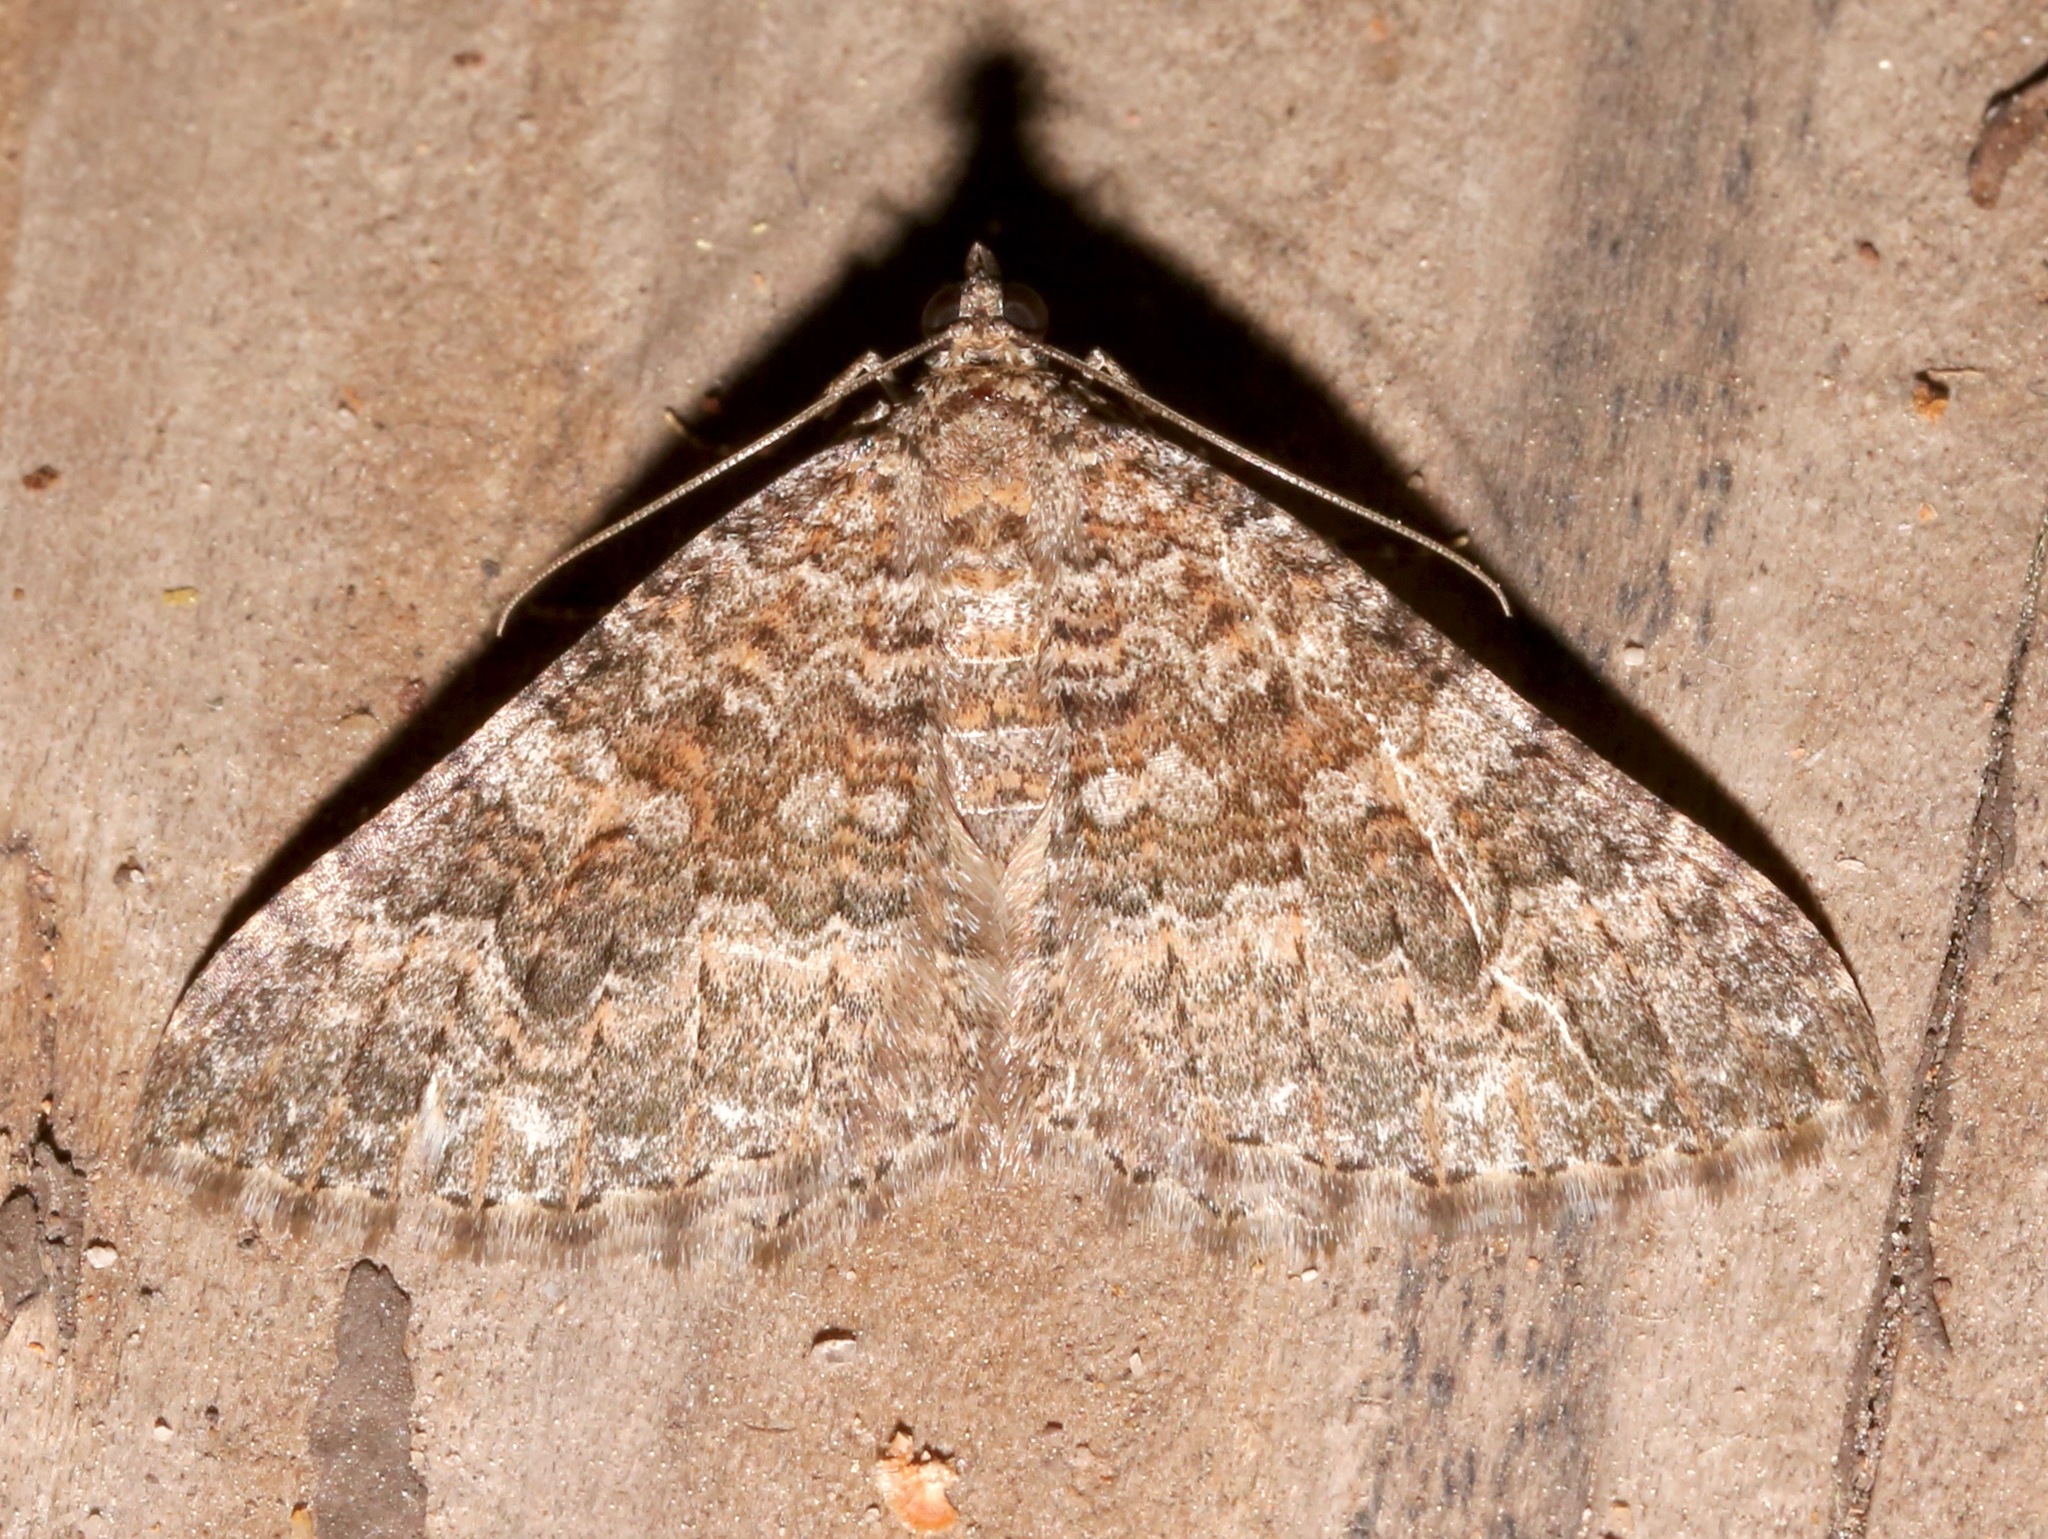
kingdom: Animalia
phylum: Arthropoda
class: Insecta
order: Lepidoptera
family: Geometridae
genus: Archirhoe
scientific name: Archirhoe neomexicana
